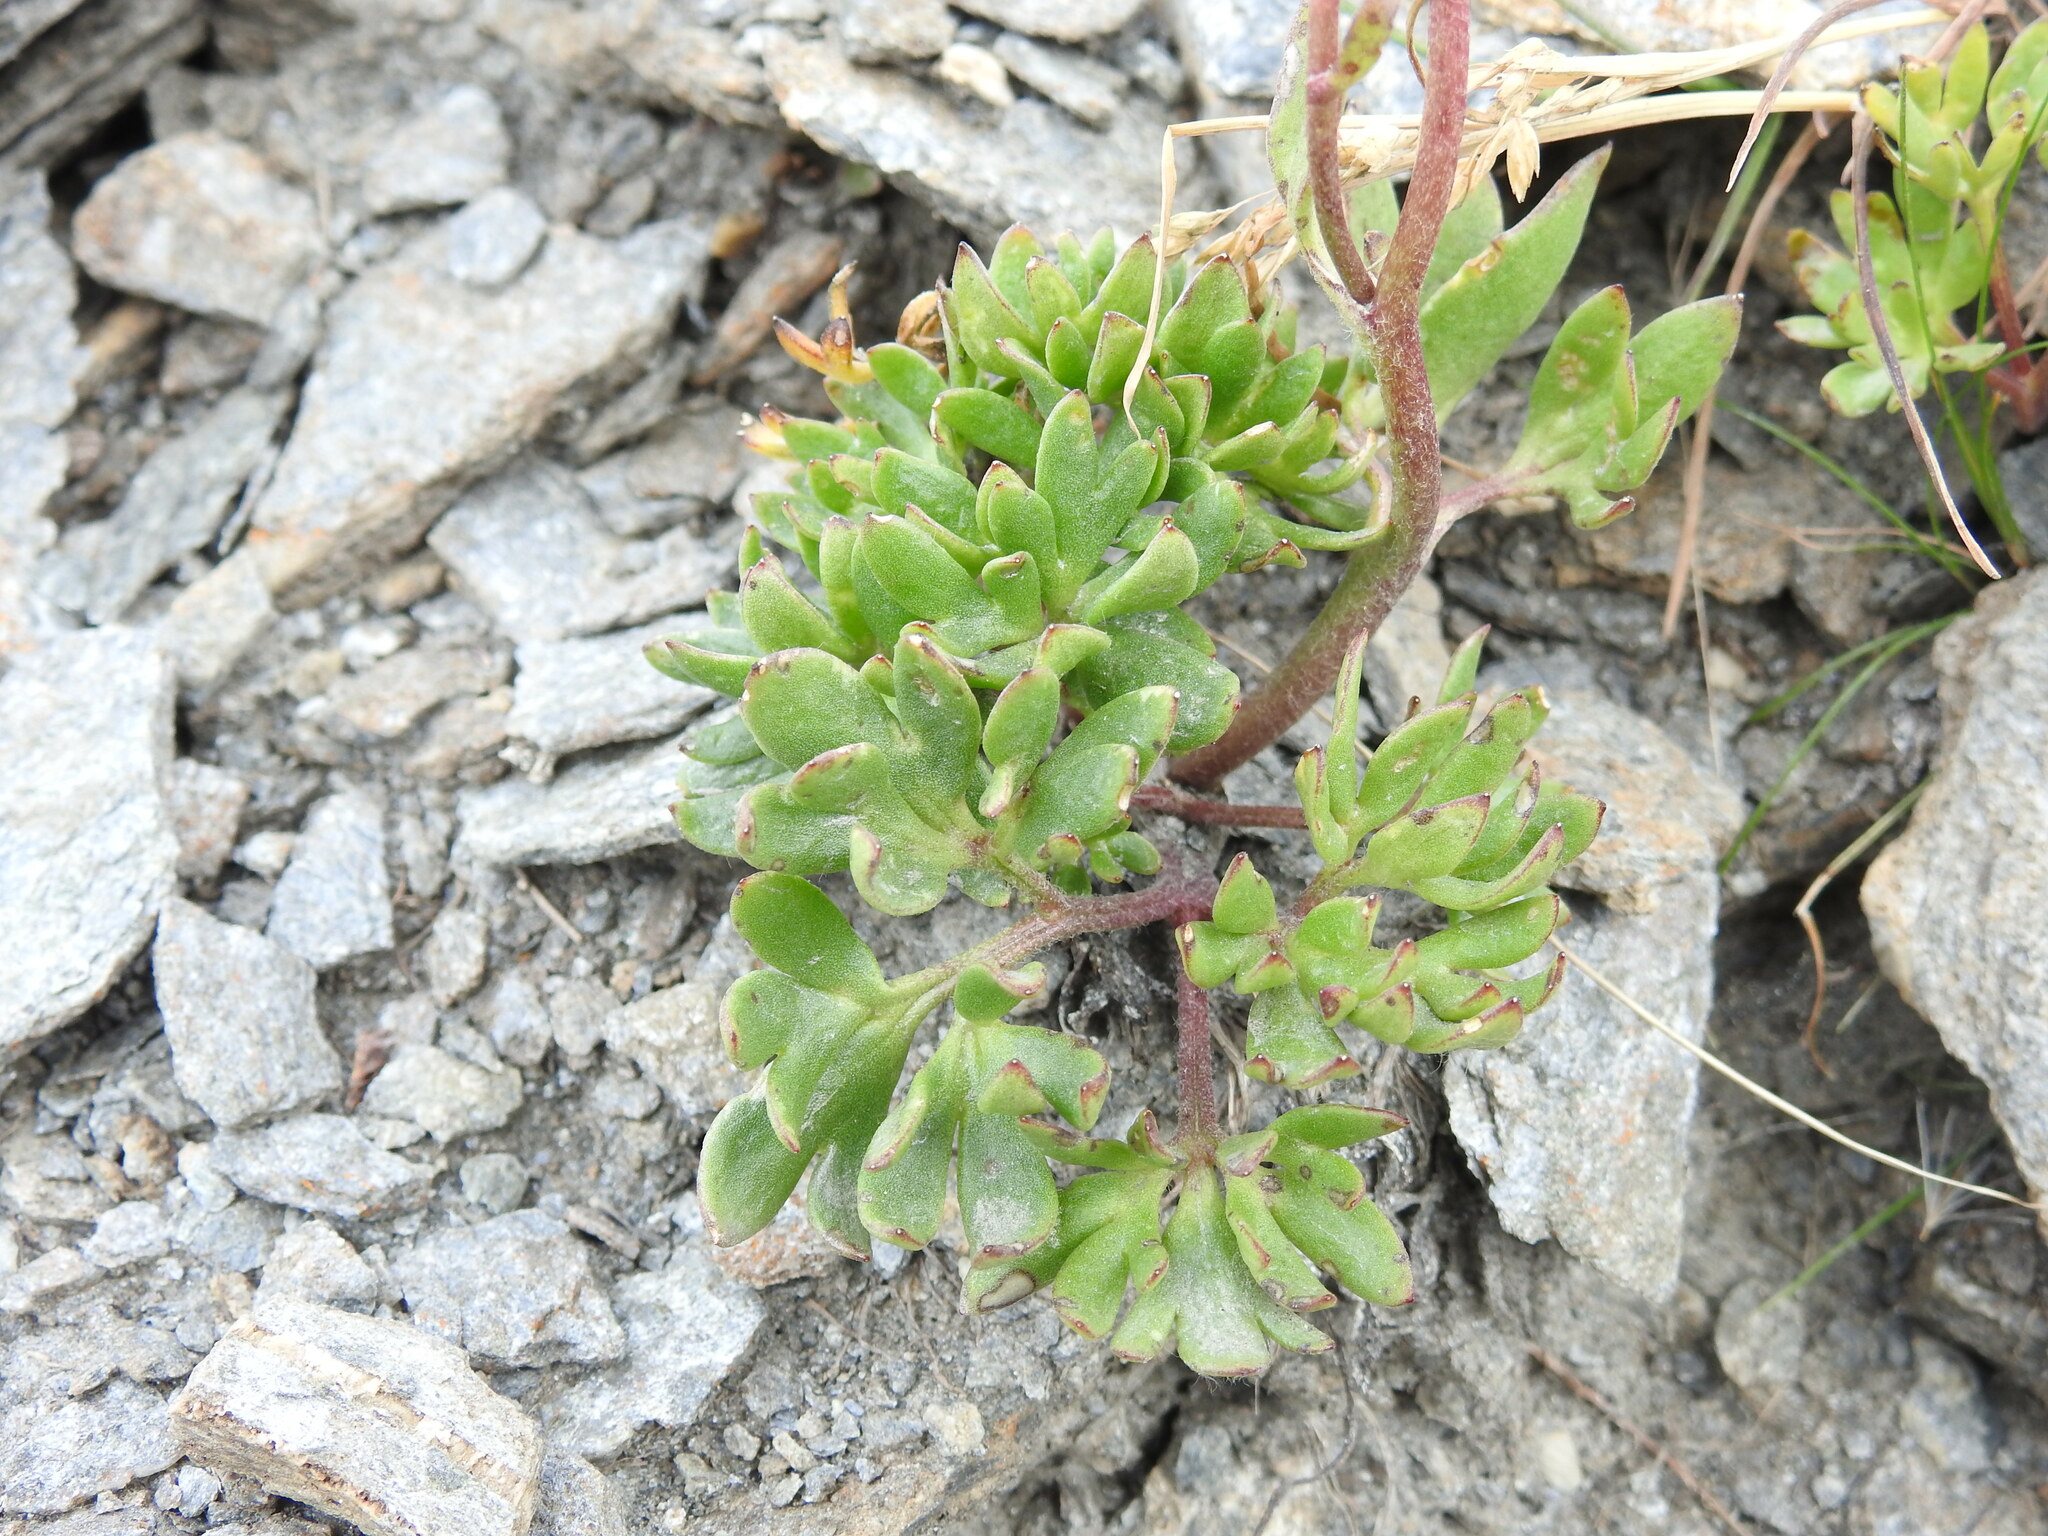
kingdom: Plantae
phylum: Tracheophyta
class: Magnoliopsida
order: Ranunculales
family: Ranunculaceae
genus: Ranunculus
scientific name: Ranunculus glacialis
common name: Glacier buttercup
